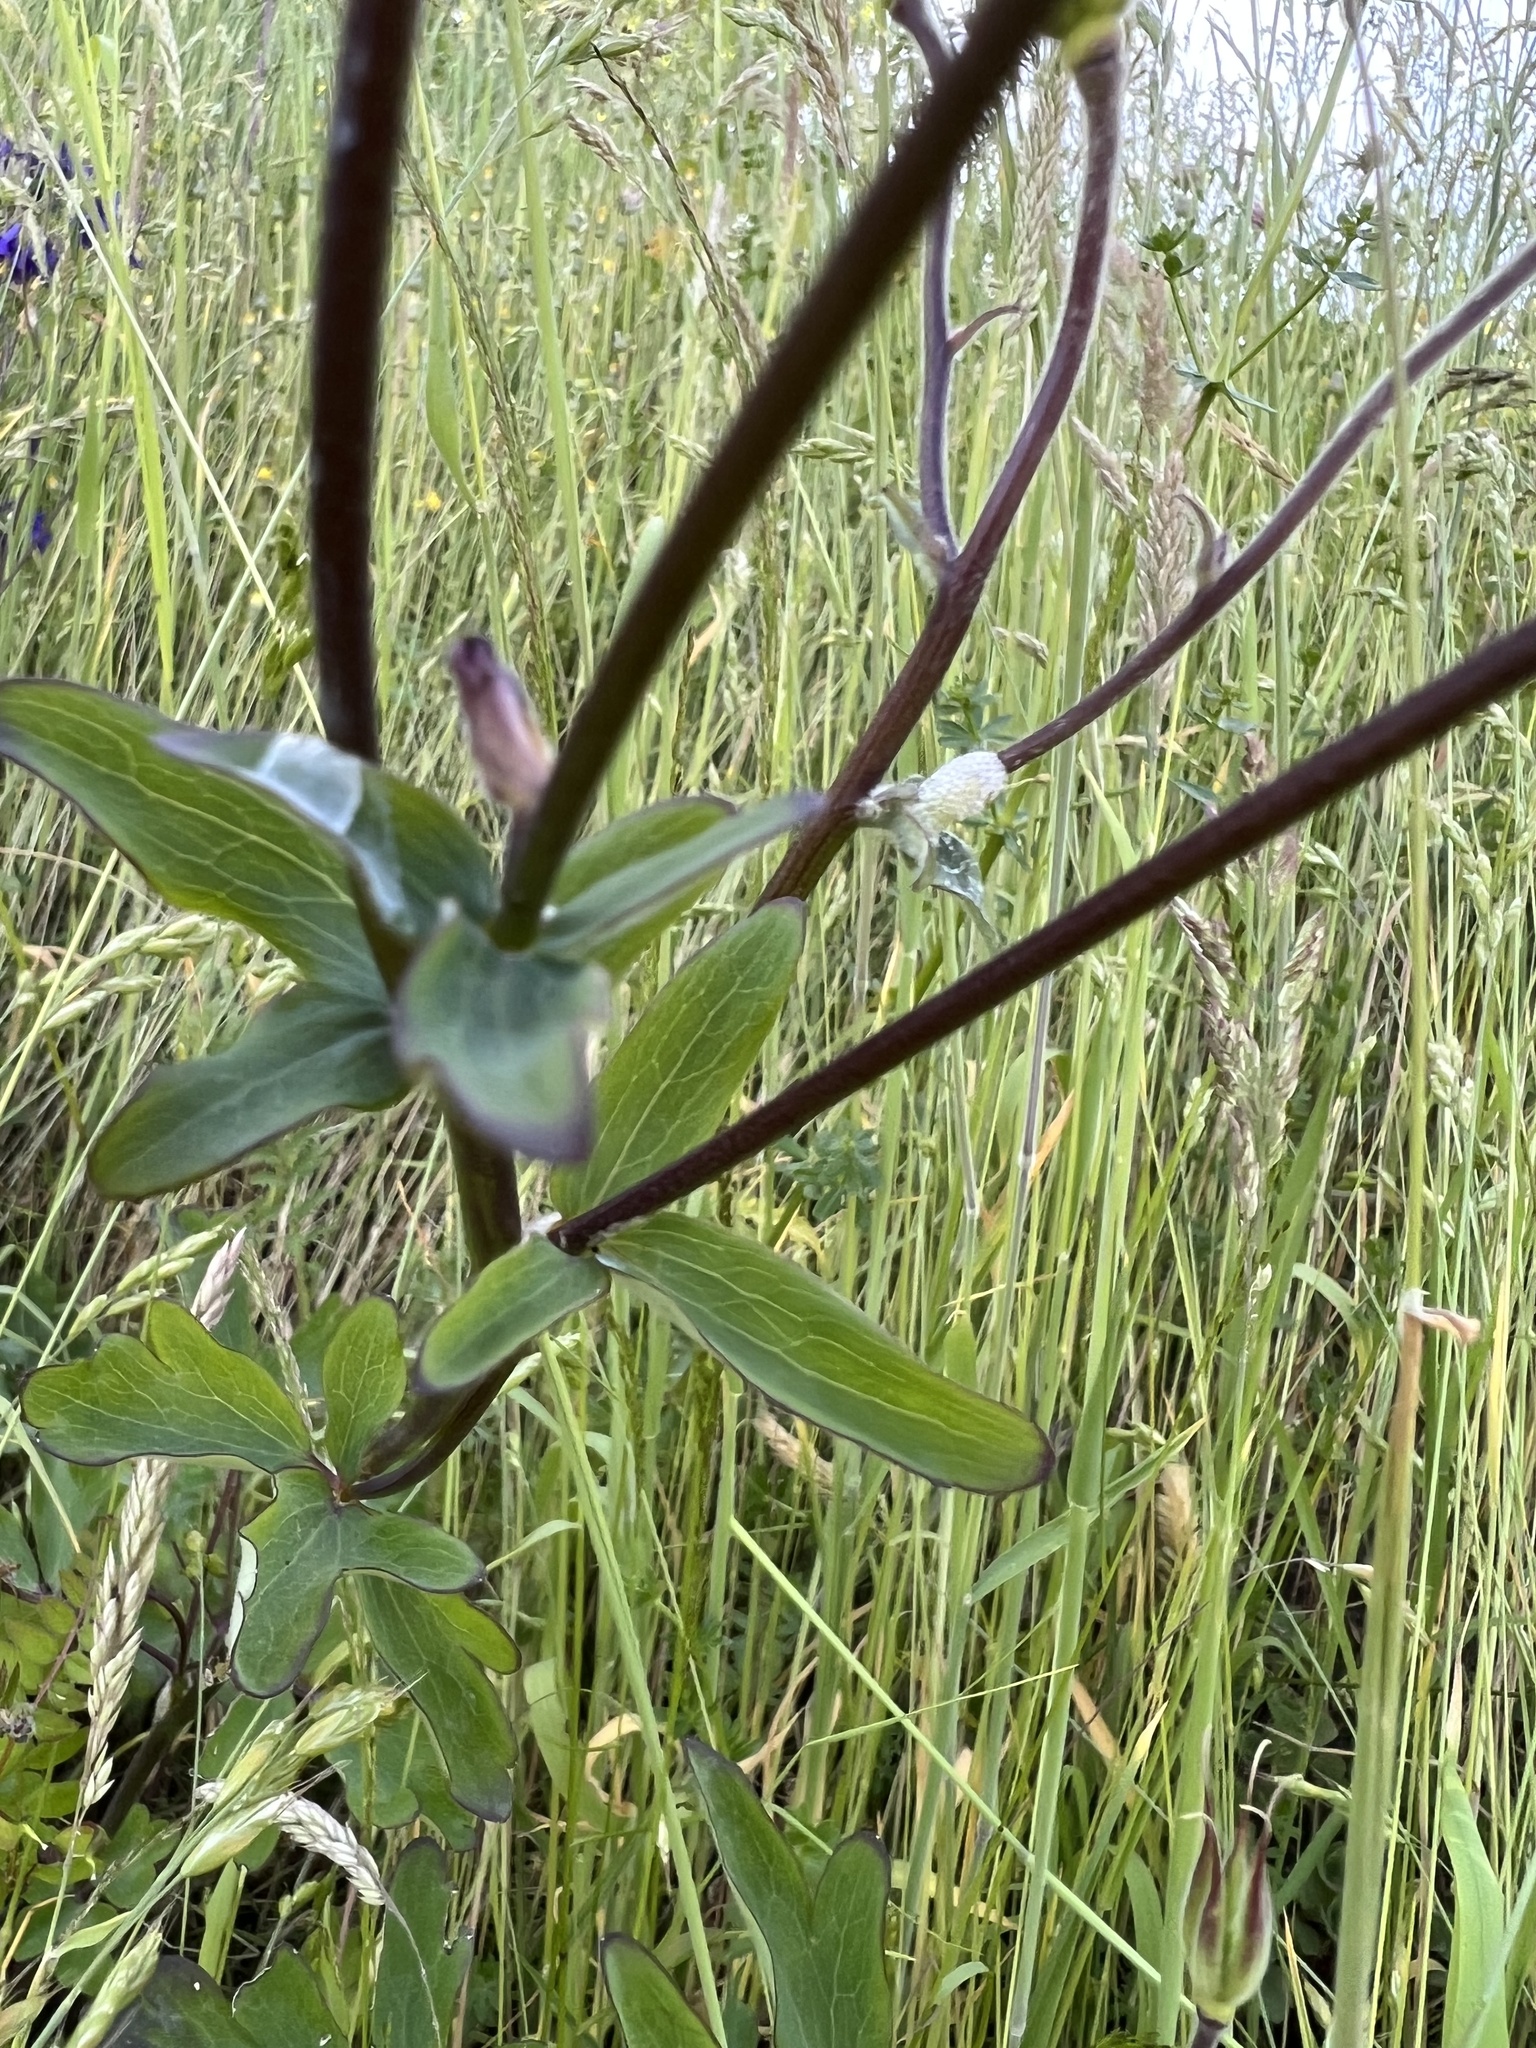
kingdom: Plantae
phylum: Tracheophyta
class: Magnoliopsida
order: Ranunculales
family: Ranunculaceae
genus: Aquilegia
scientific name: Aquilegia vulgaris
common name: Columbine
